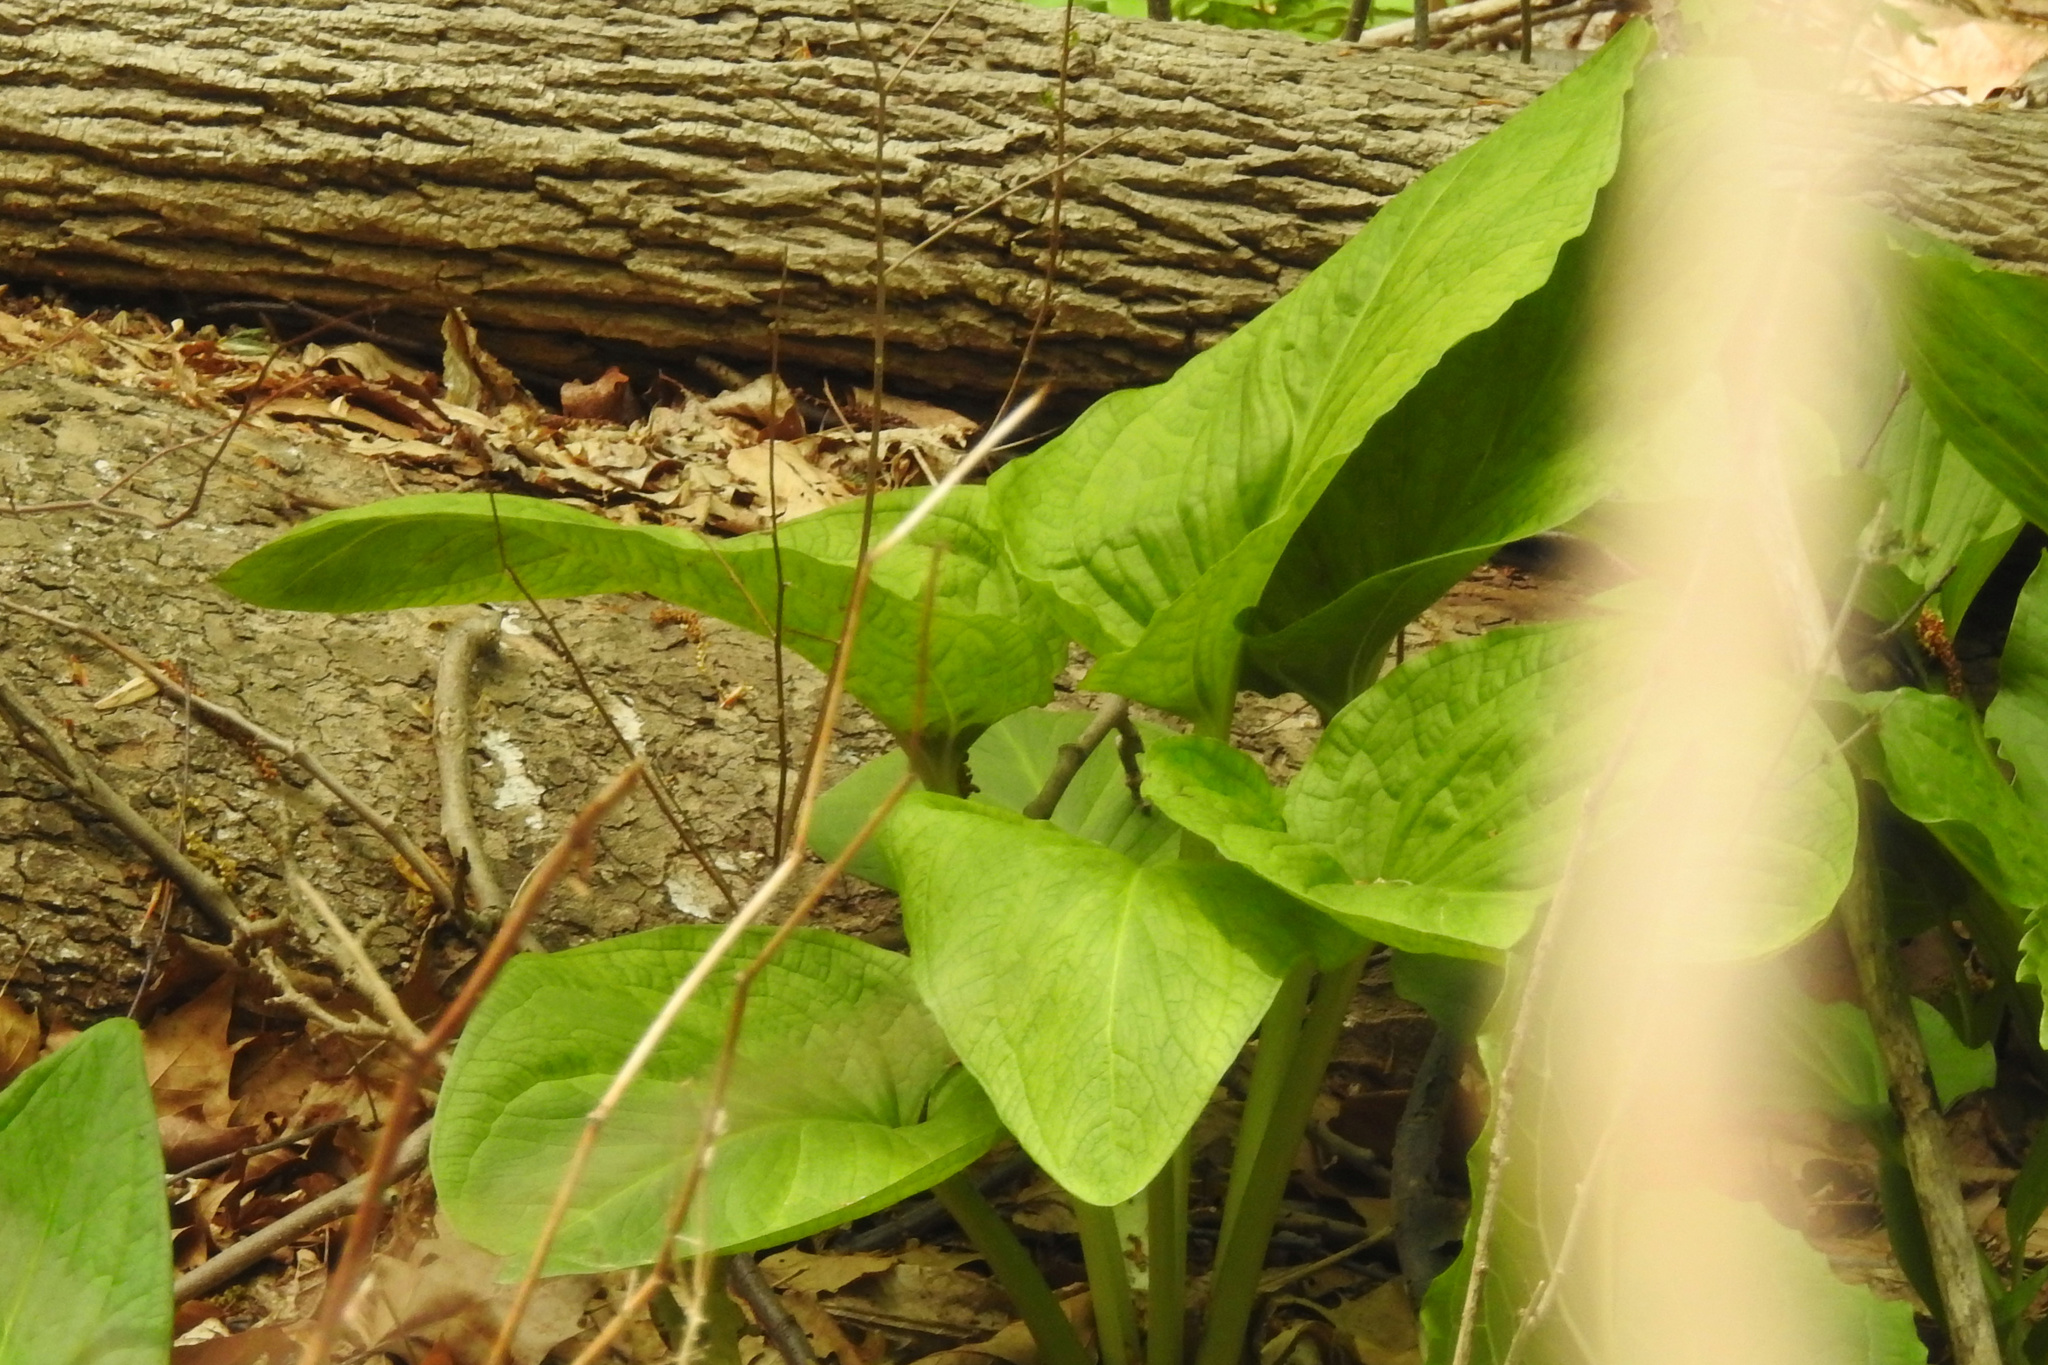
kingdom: Plantae
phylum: Tracheophyta
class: Liliopsida
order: Alismatales
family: Araceae
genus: Symplocarpus
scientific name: Symplocarpus foetidus
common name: Eastern skunk cabbage
